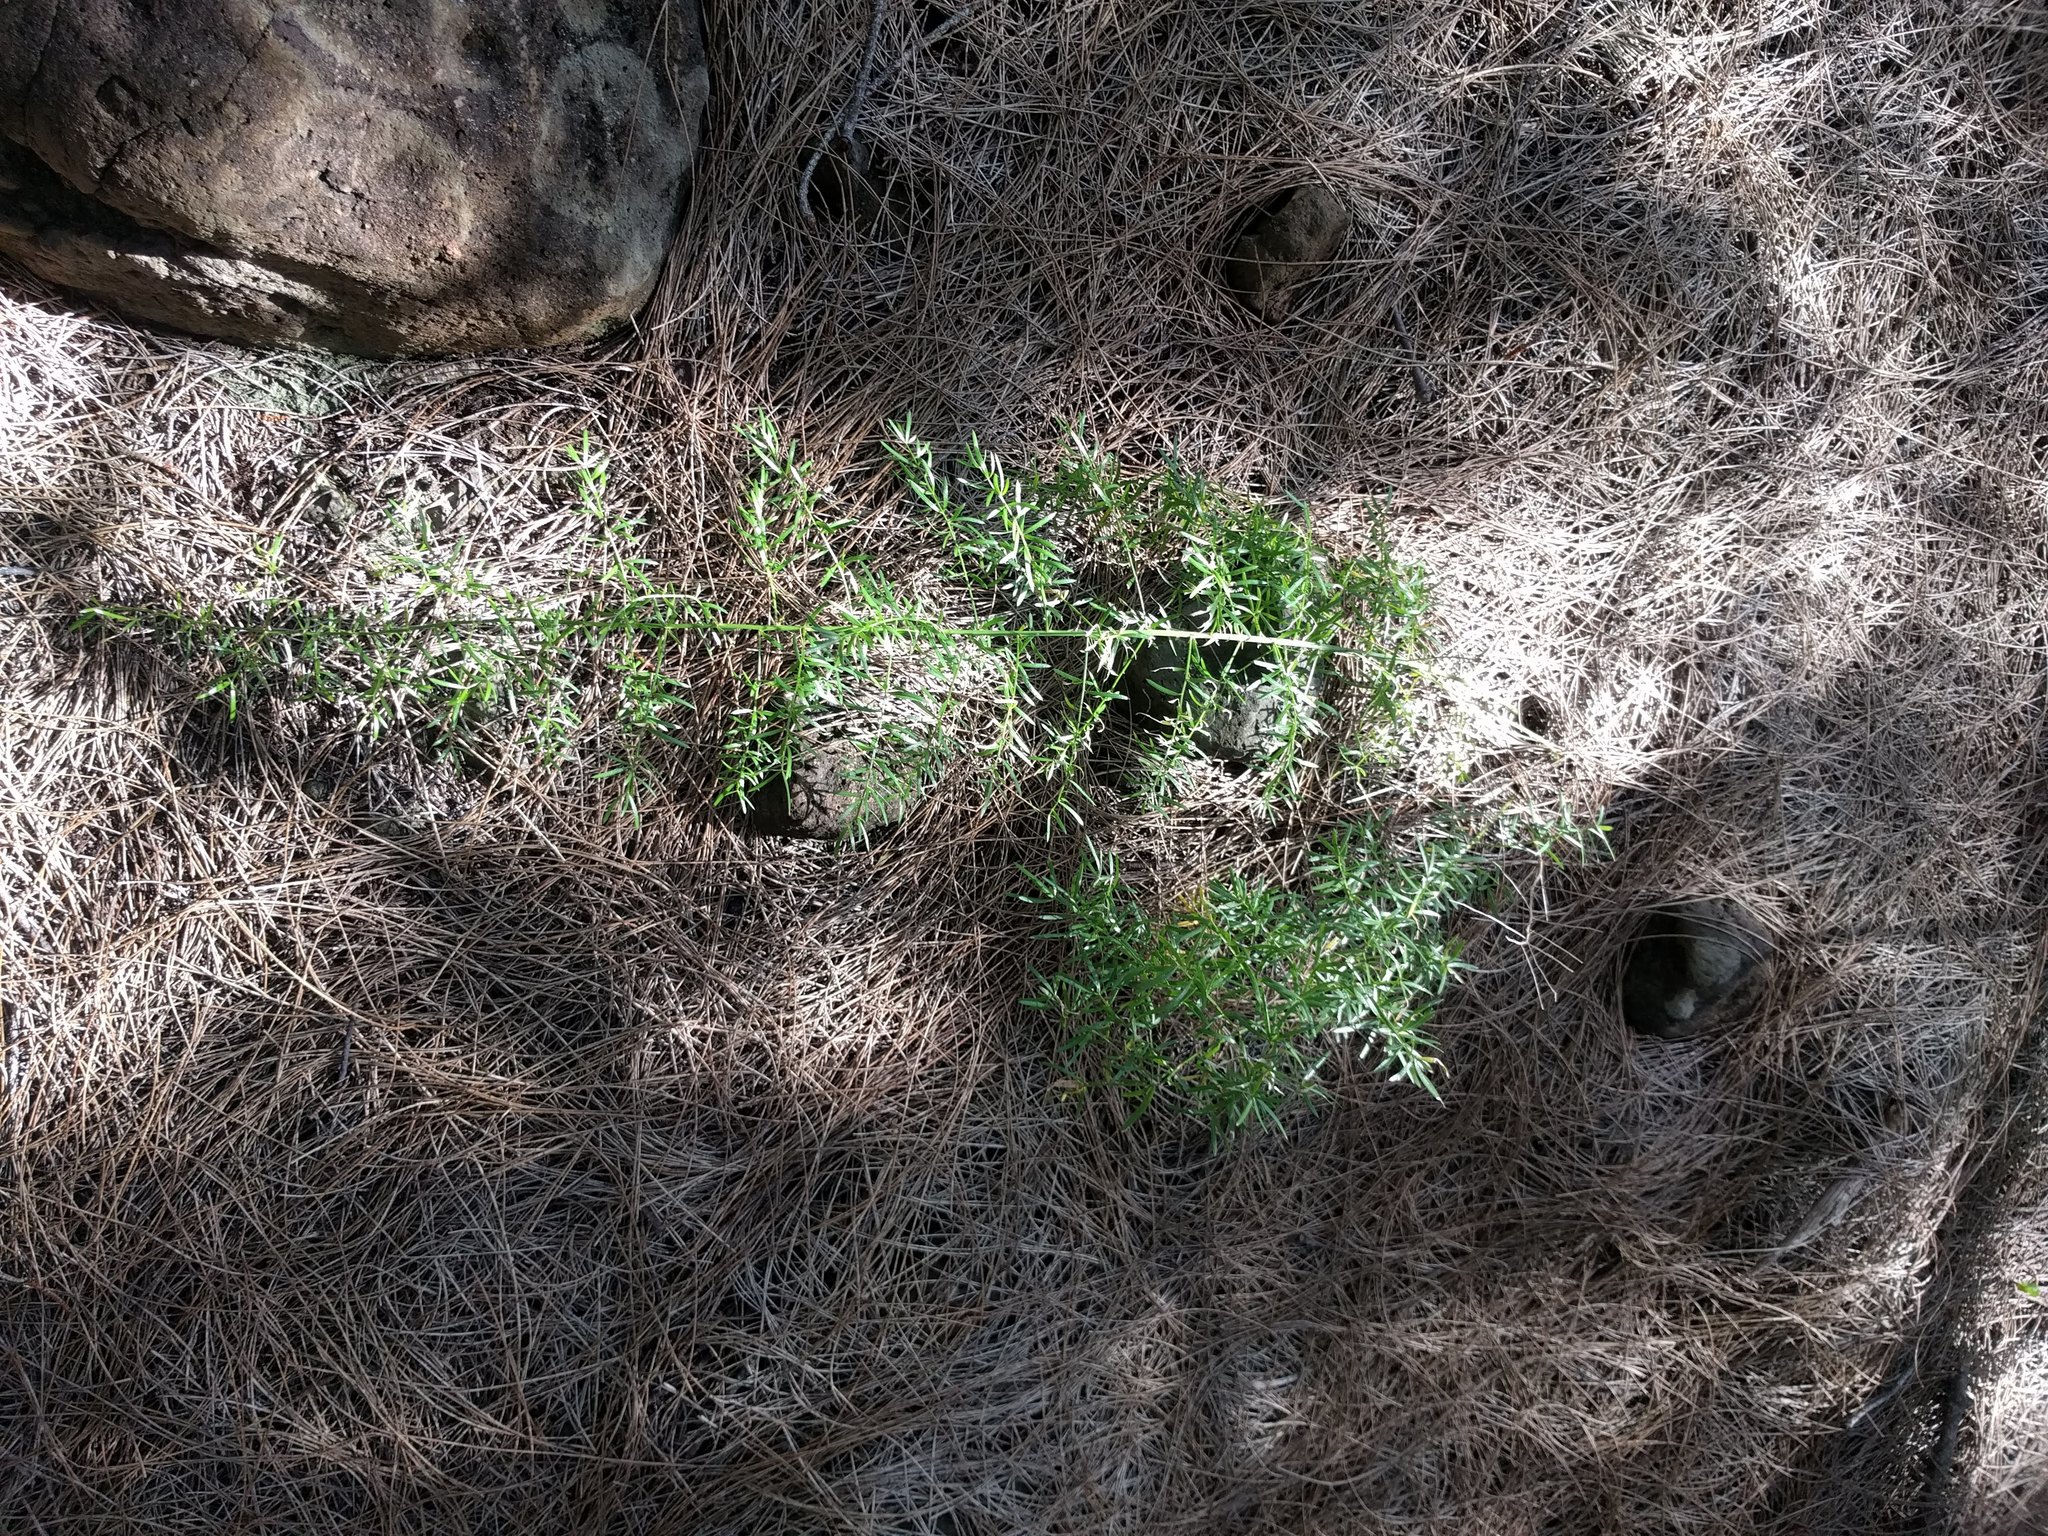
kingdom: Plantae
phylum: Tracheophyta
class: Liliopsida
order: Asparagales
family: Asparagaceae
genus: Asparagus
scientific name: Asparagus aethiopicus
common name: Sprenger's asparagus fern
